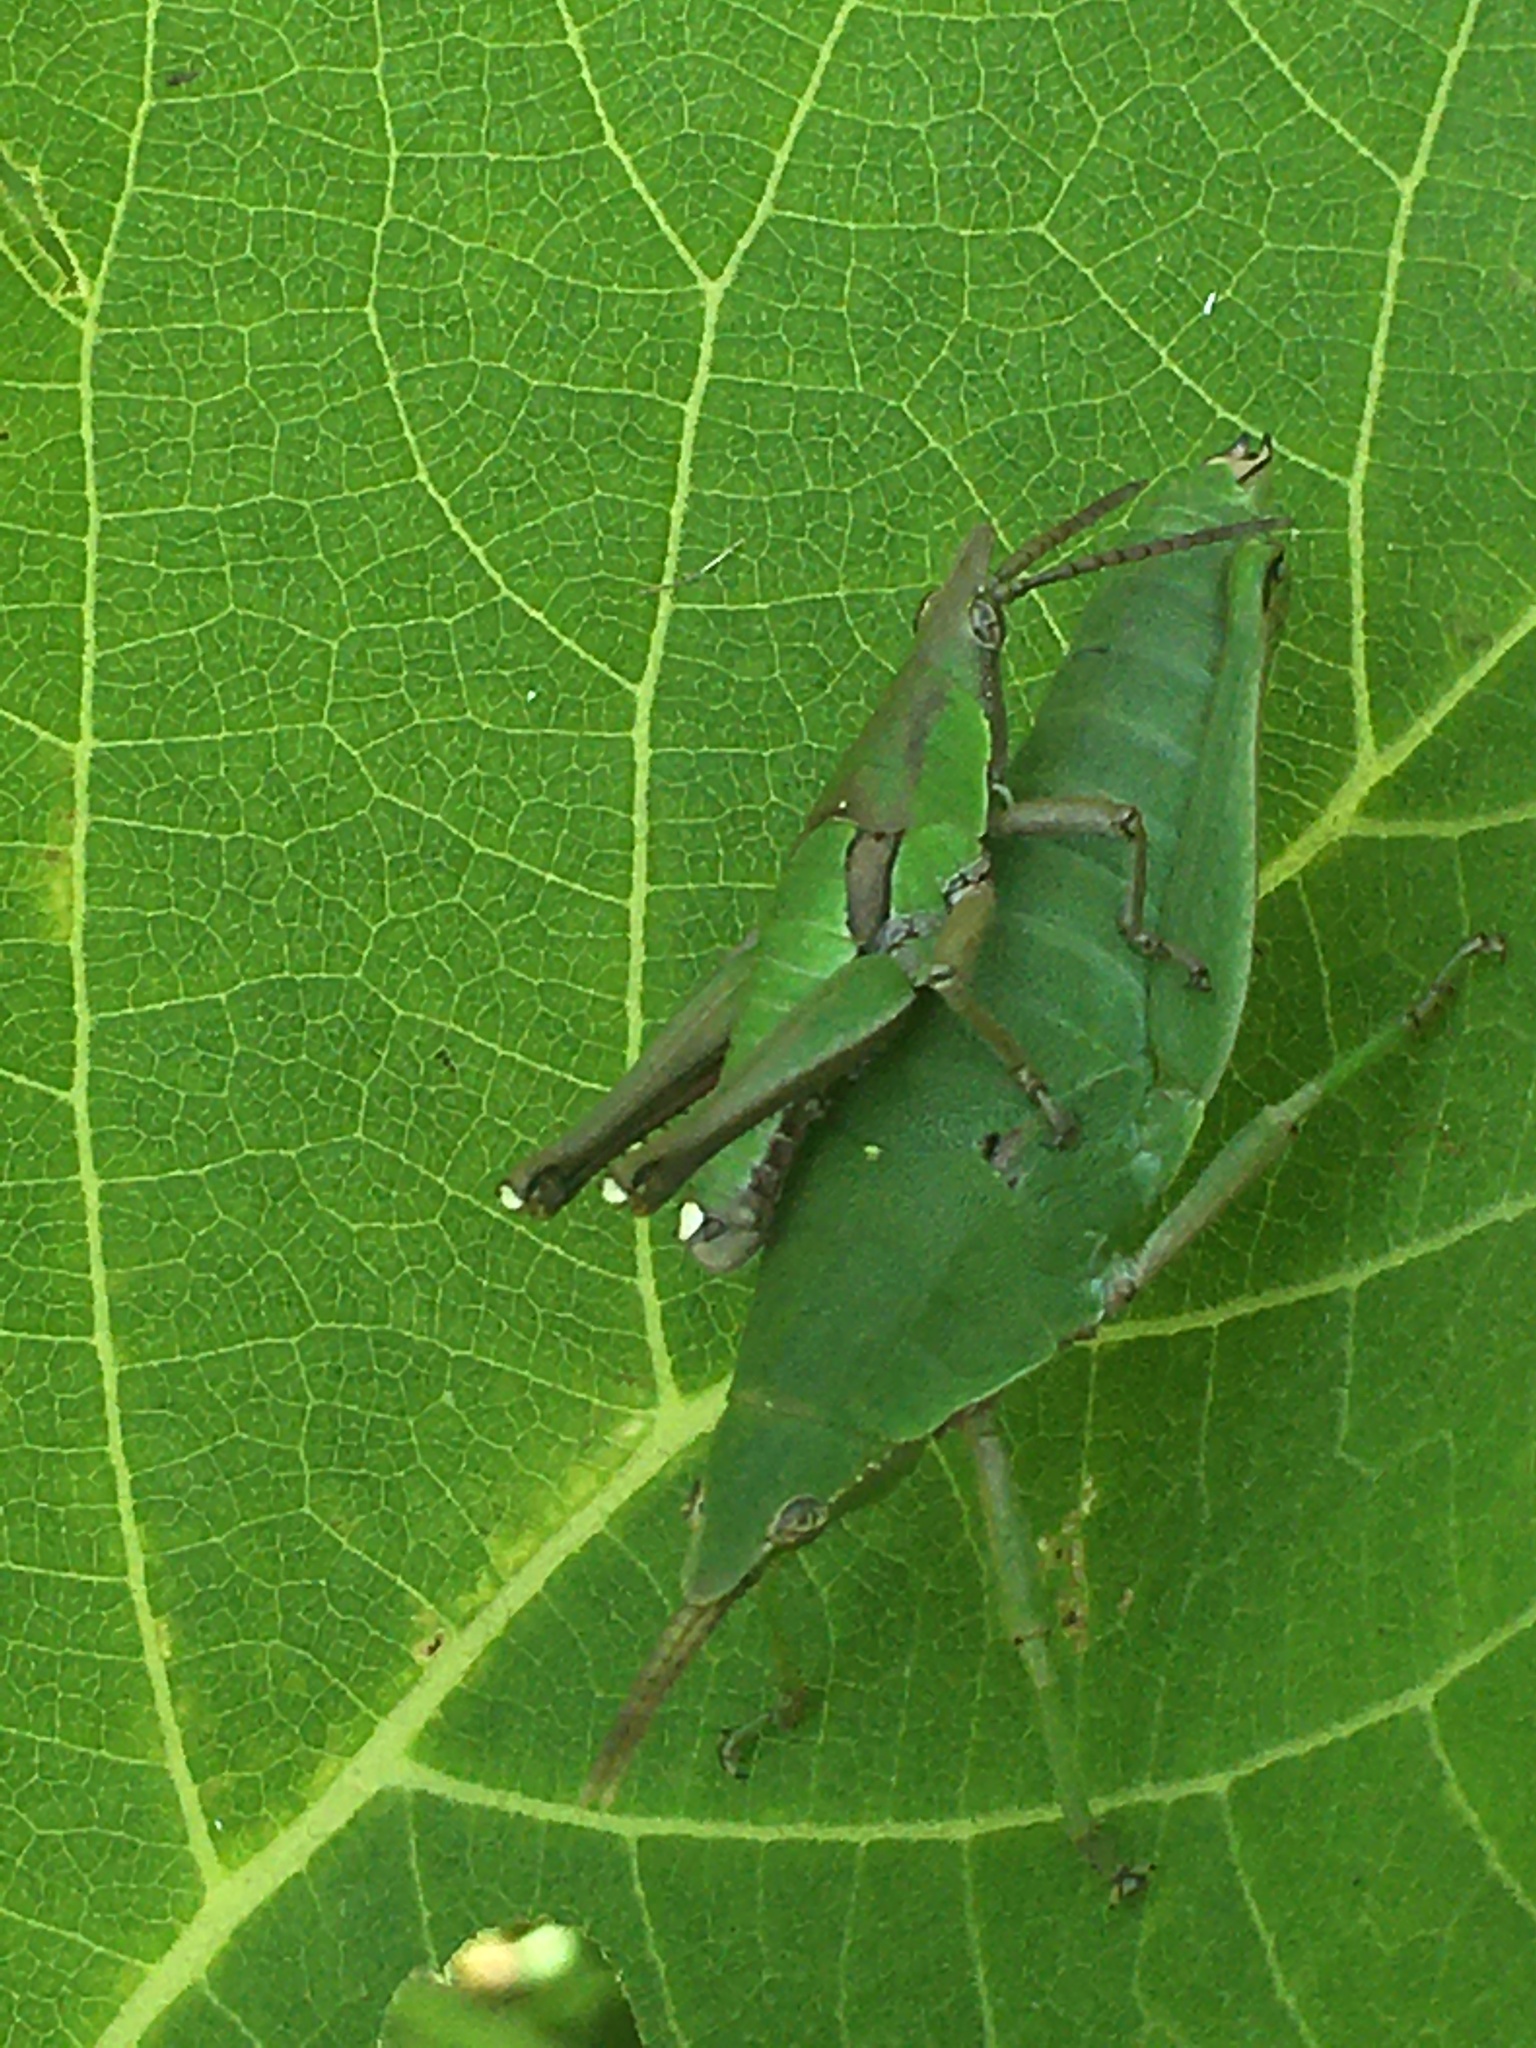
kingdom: Animalia
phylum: Arthropoda
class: Insecta
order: Orthoptera
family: Pyrgomorphidae
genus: Prosphena
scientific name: Prosphena scudderi
